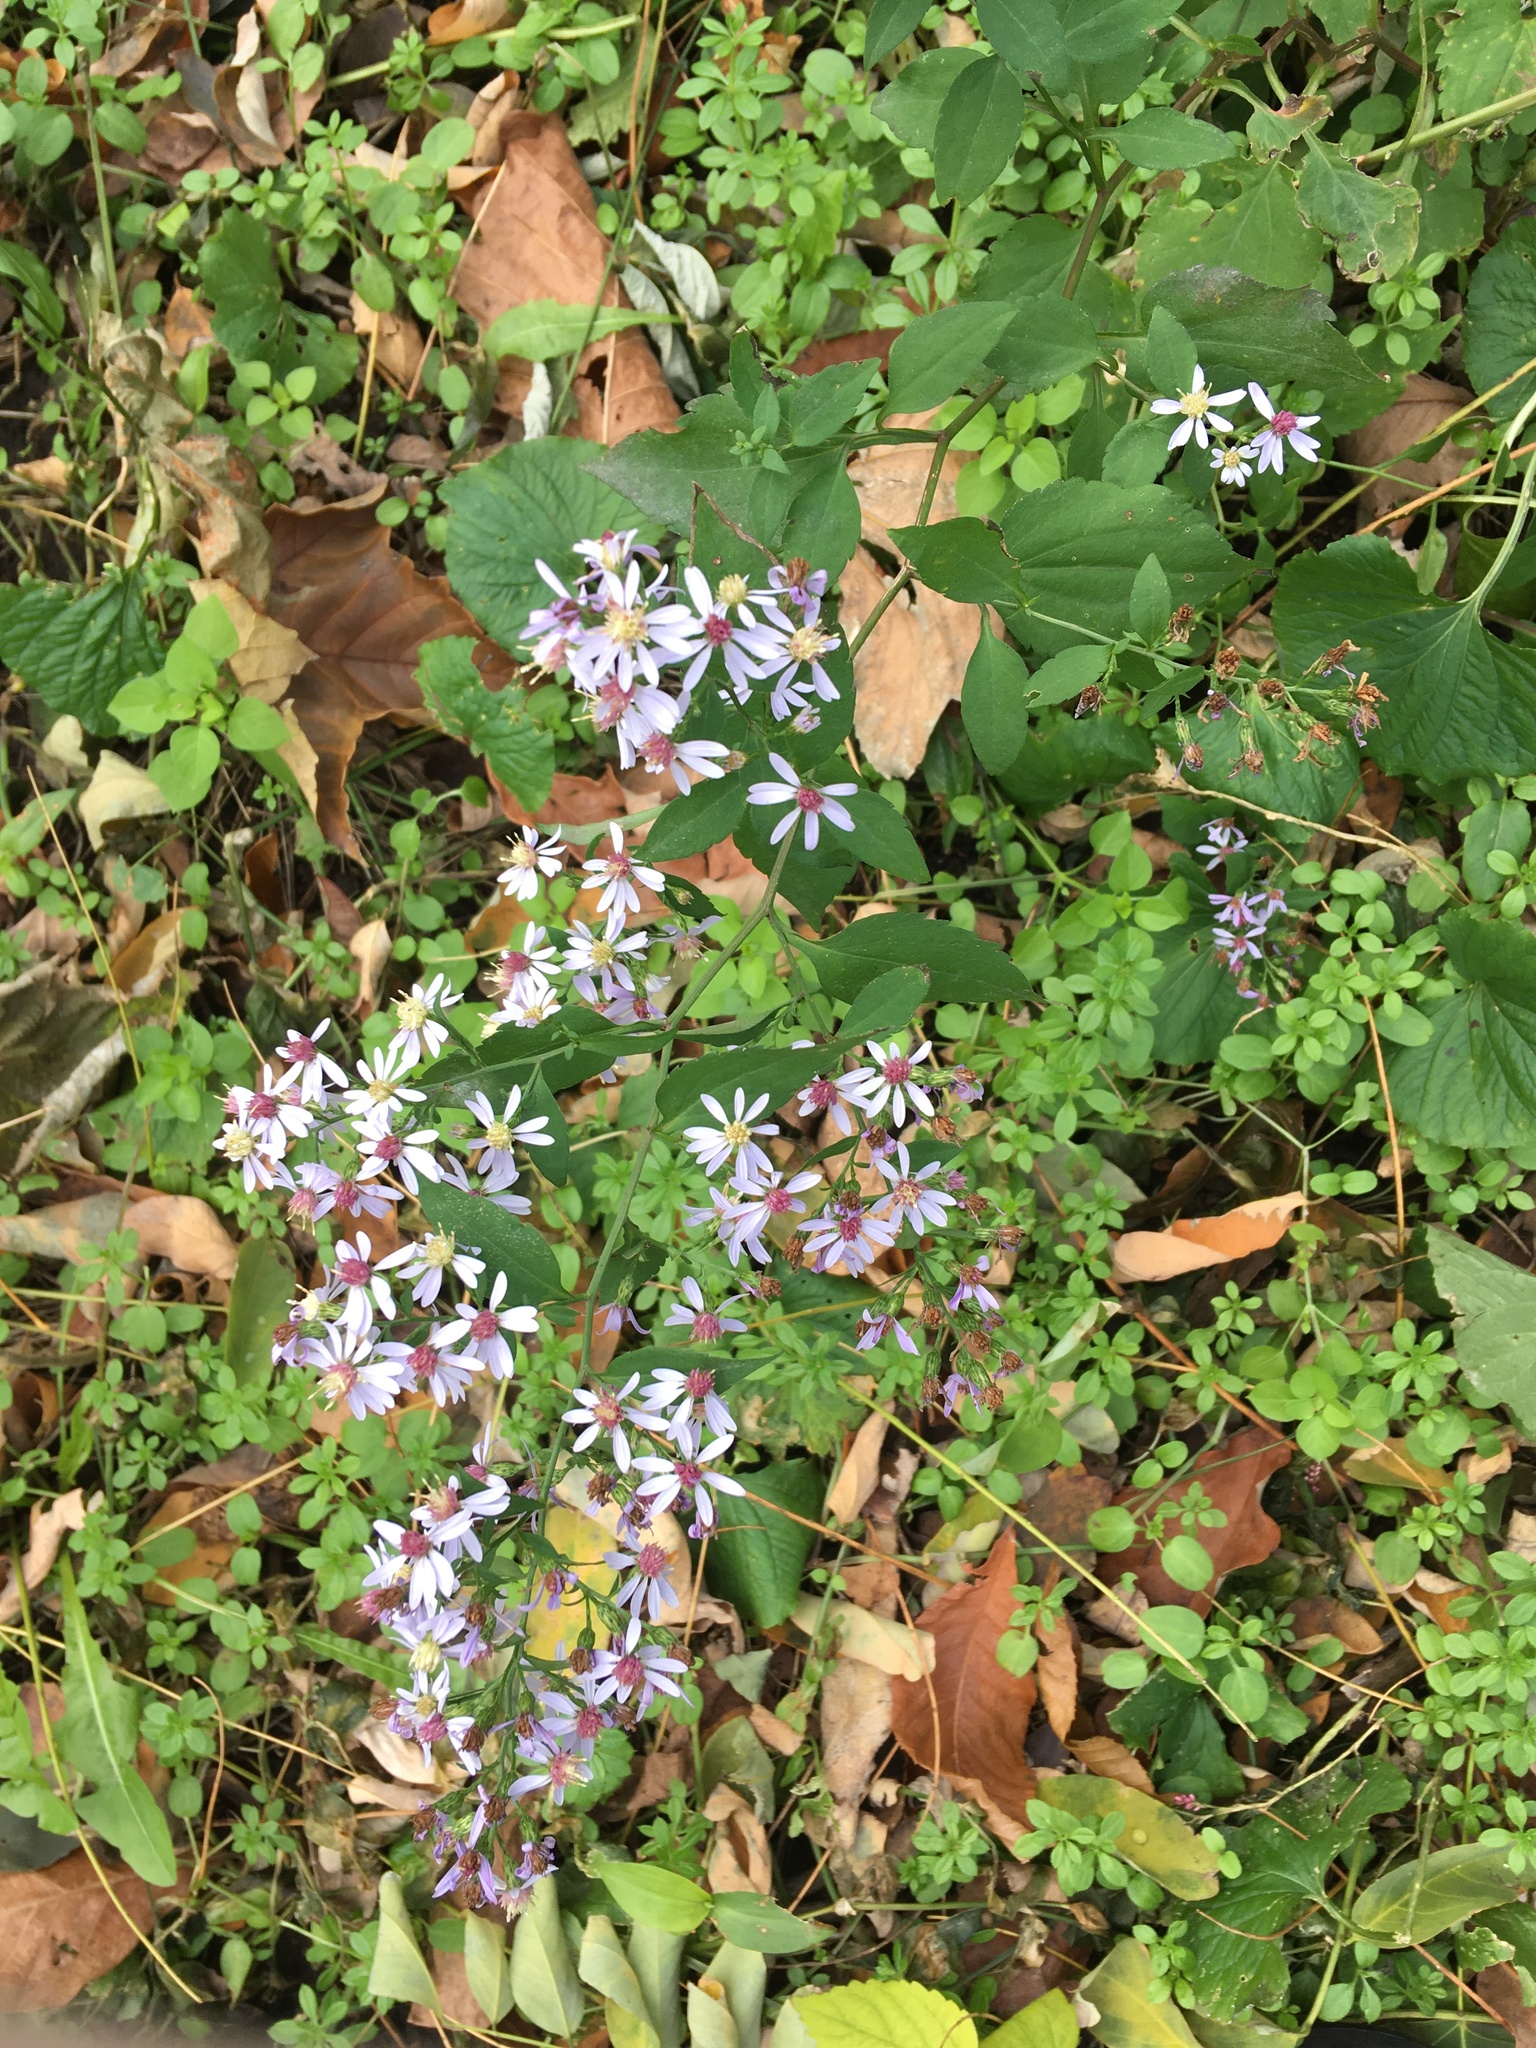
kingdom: Plantae
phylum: Tracheophyta
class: Magnoliopsida
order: Asterales
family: Asteraceae
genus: Symphyotrichum
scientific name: Symphyotrichum cordifolium
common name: Beeweed
